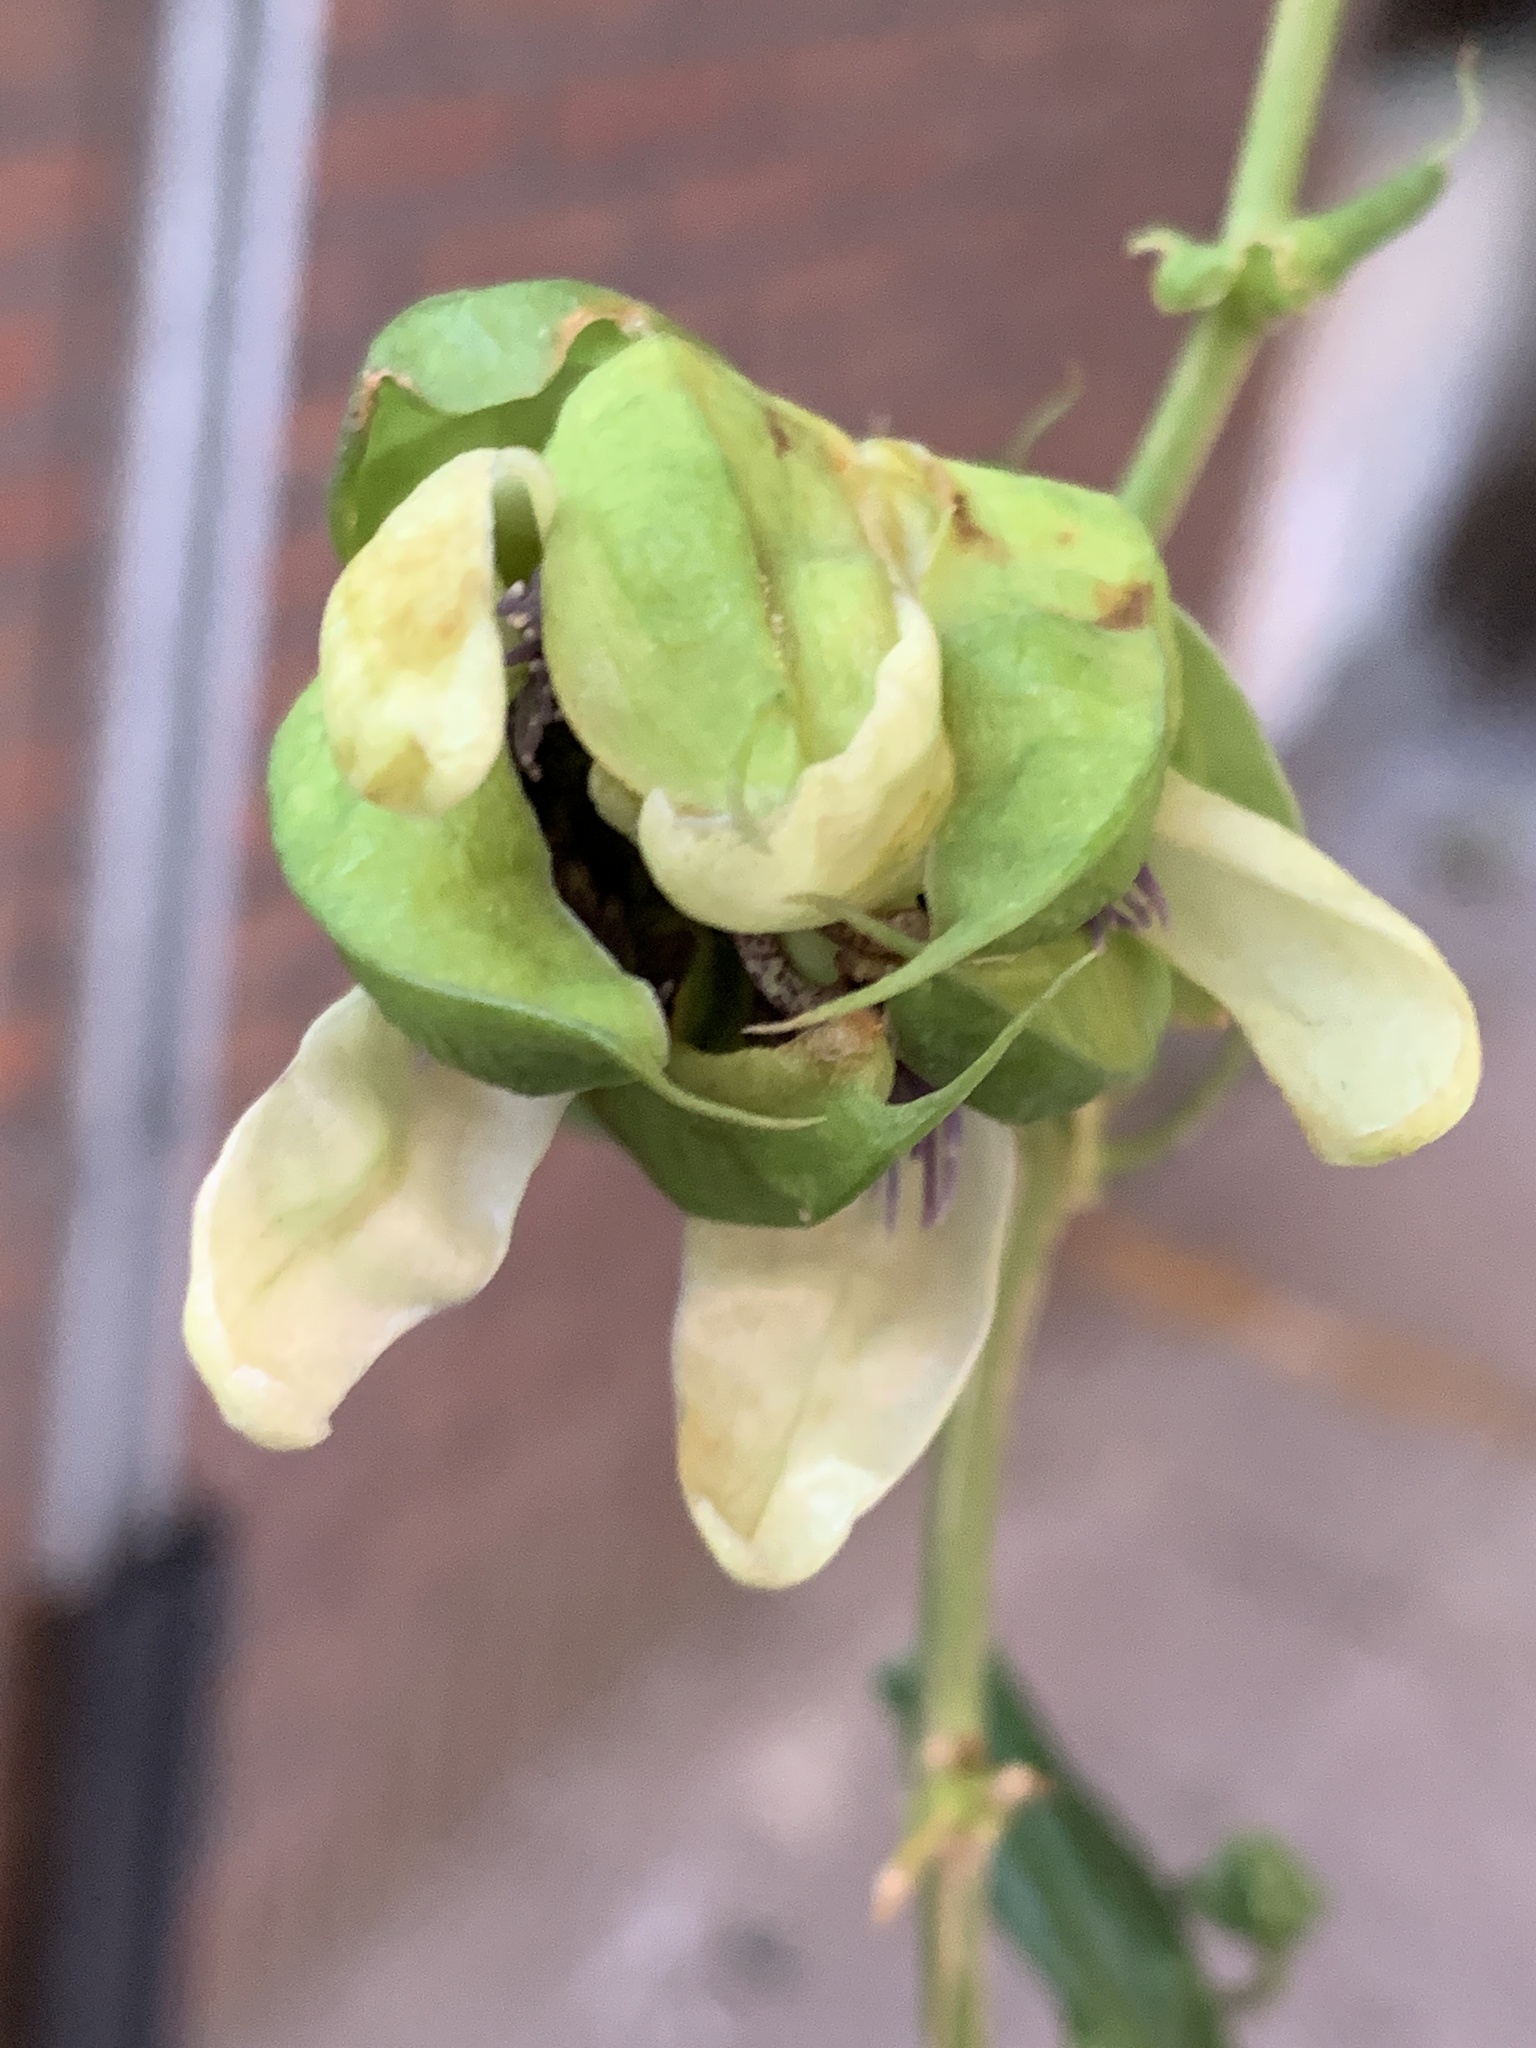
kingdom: Plantae
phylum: Tracheophyta
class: Magnoliopsida
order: Malpighiales
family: Passifloraceae
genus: Passiflora
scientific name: Passiflora caerulea
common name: Blue passionflower
